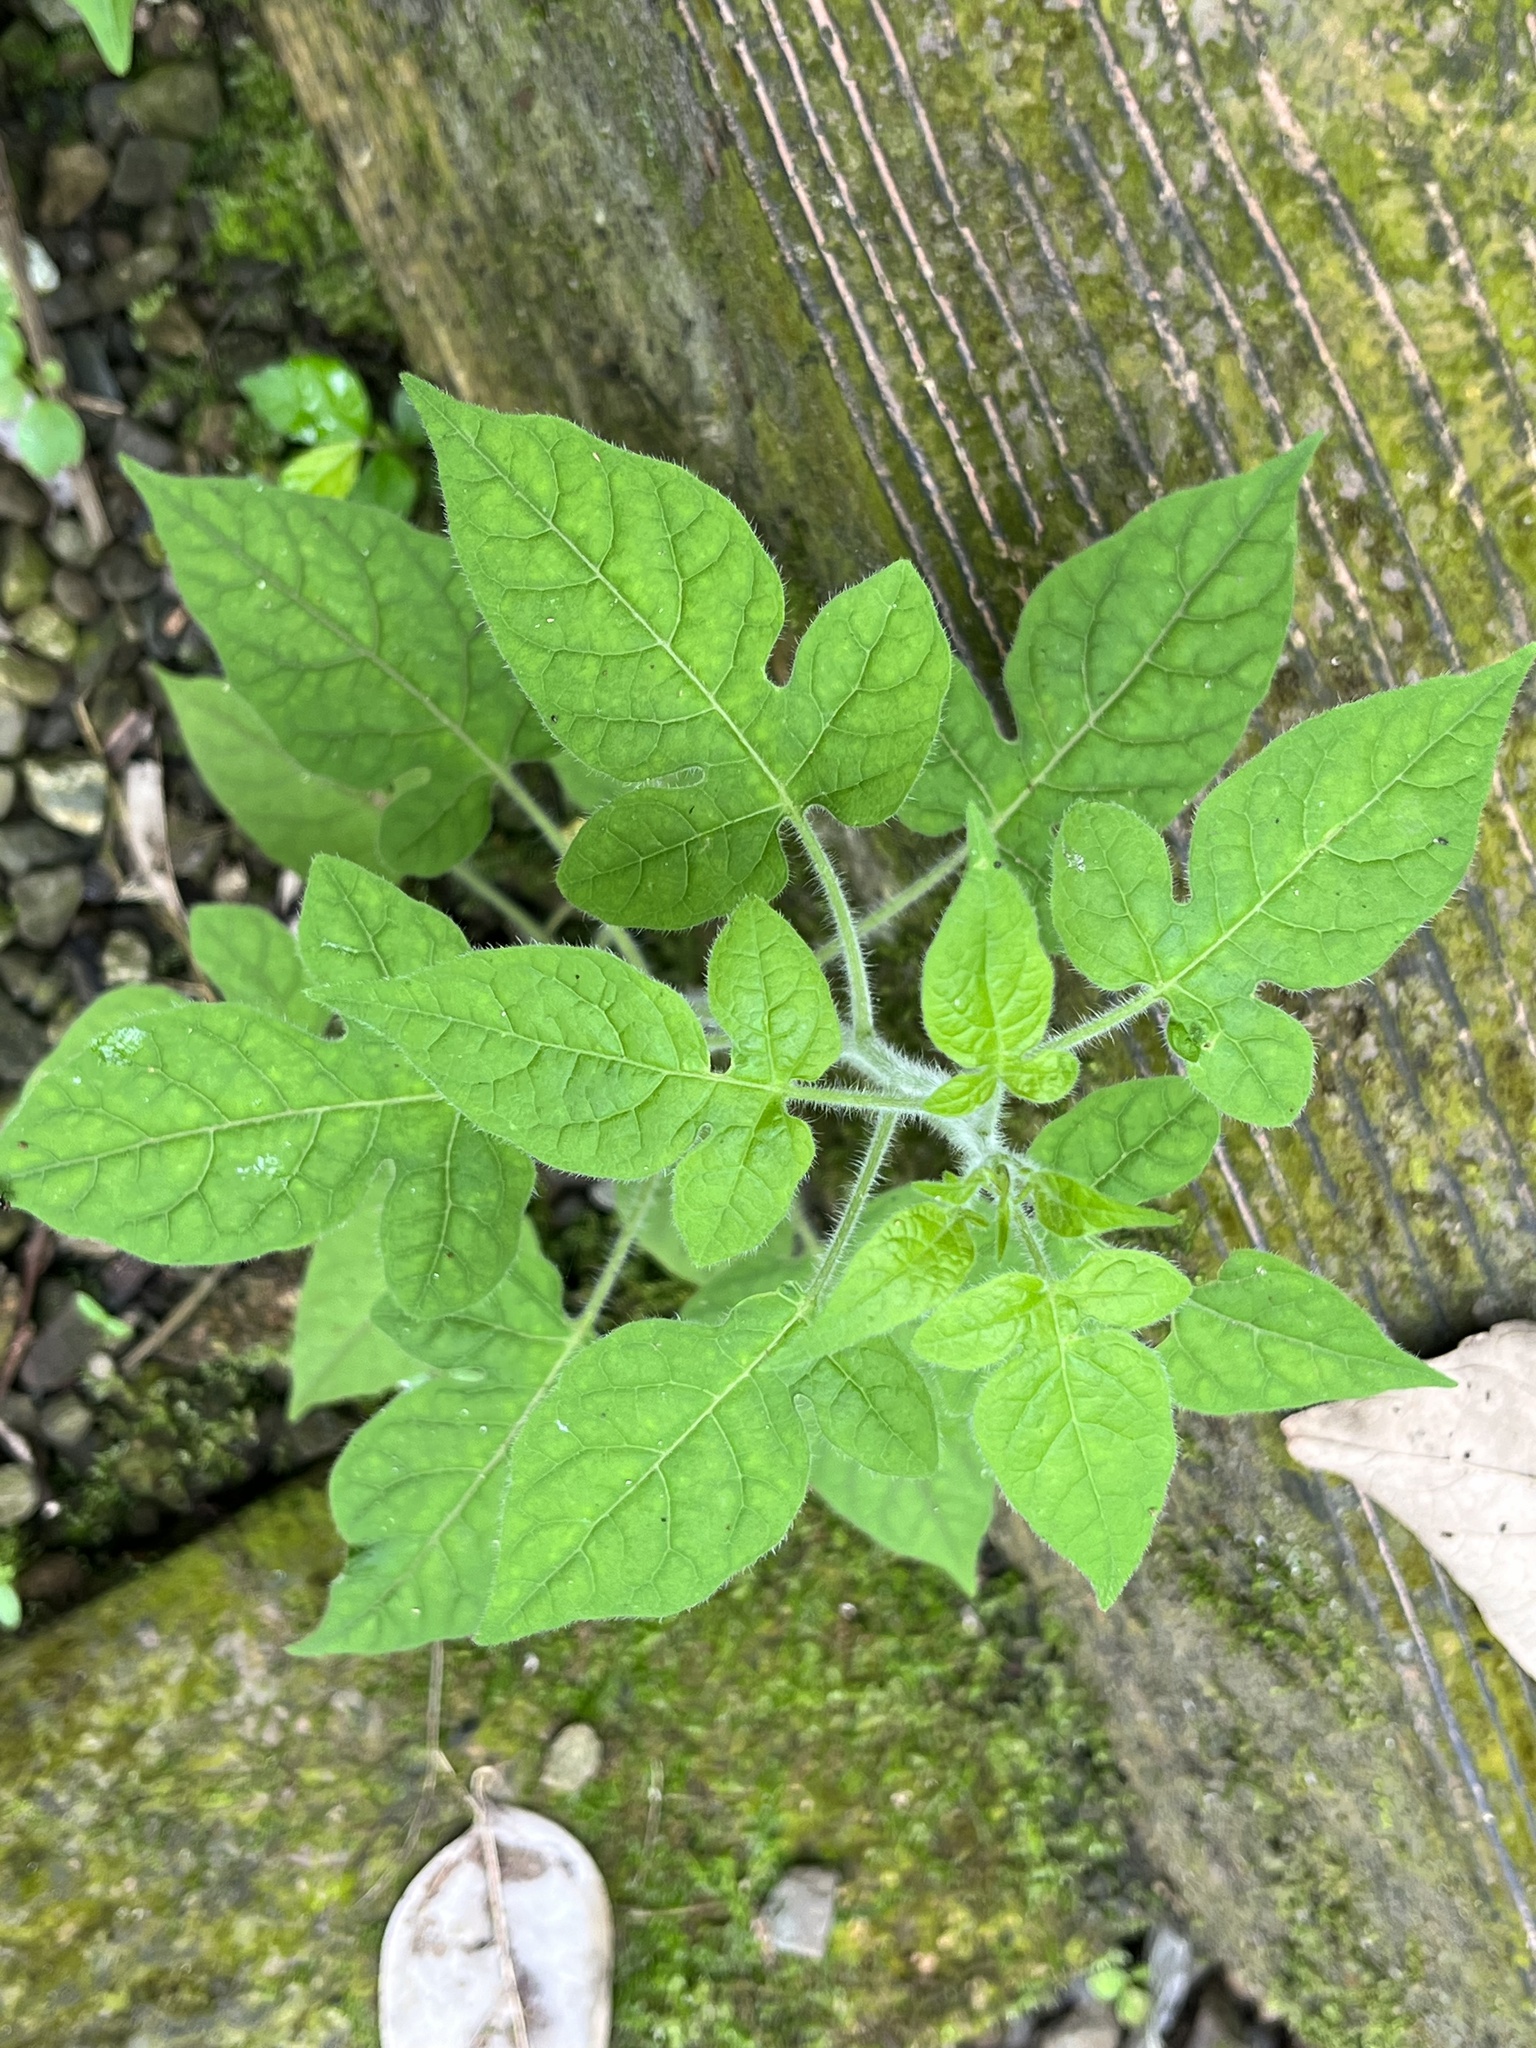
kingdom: Plantae
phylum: Tracheophyta
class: Magnoliopsida
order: Solanales
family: Solanaceae
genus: Solanum
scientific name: Solanum lyratum
